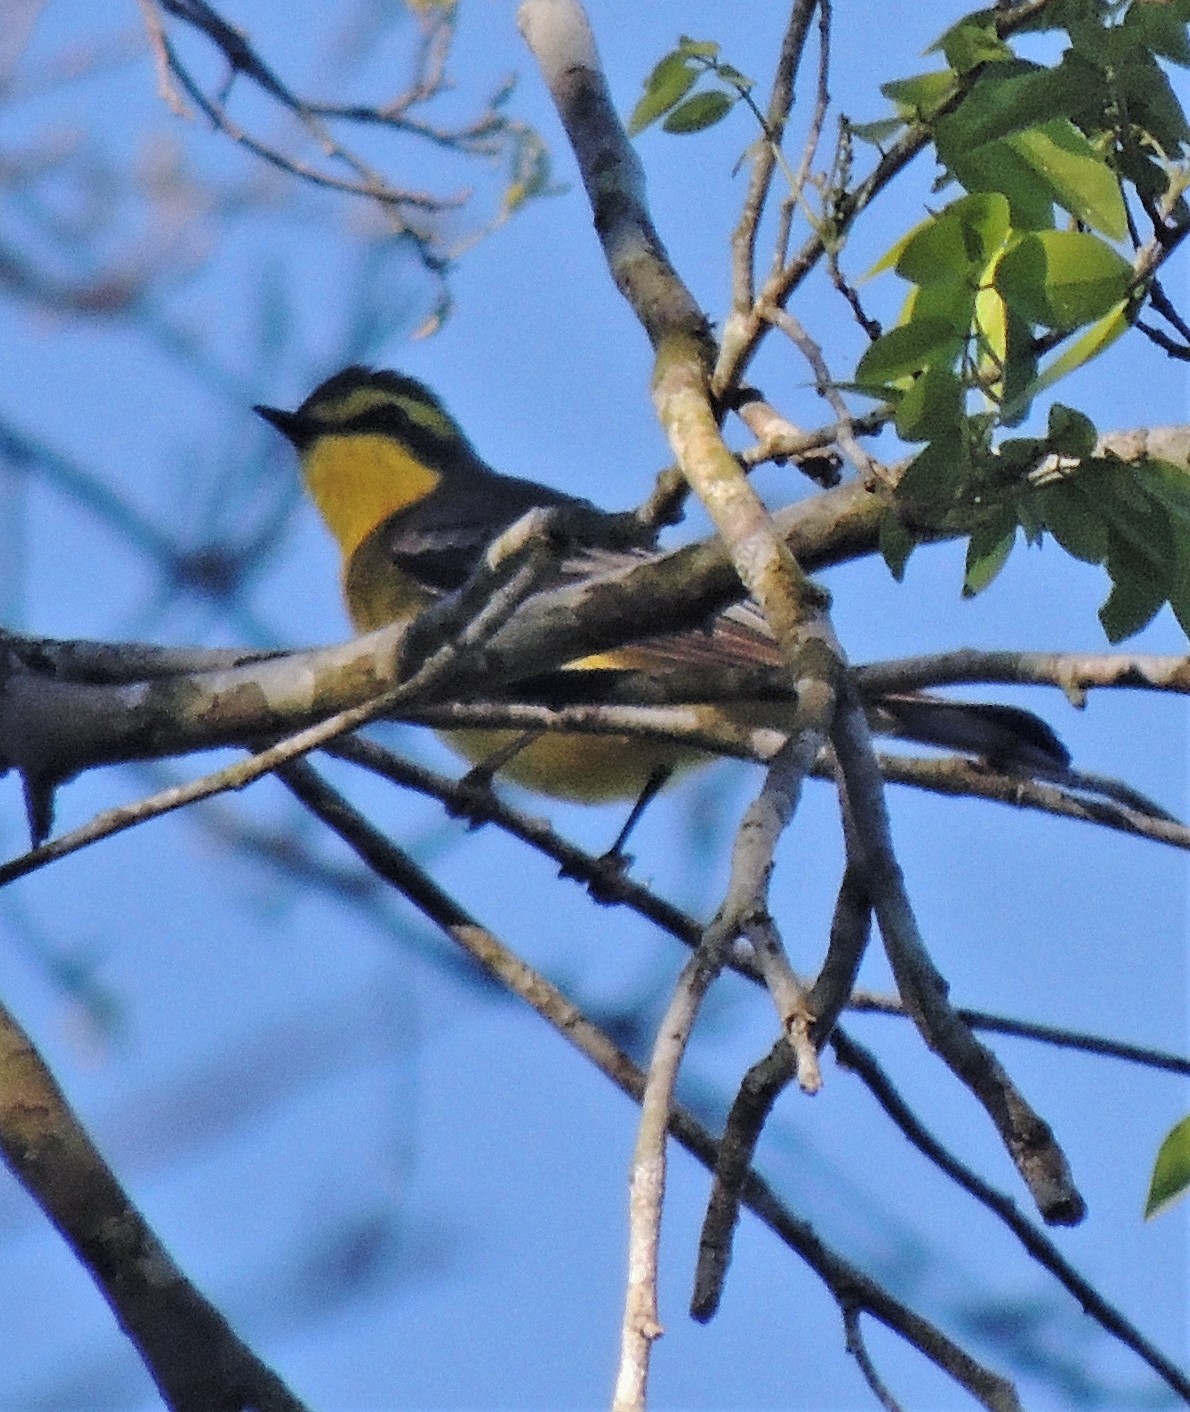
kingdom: Animalia
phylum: Chordata
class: Aves
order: Passeriformes
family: Tyrannidae
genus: Satrapa
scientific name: Satrapa icterophrys
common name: Yellow-browed tyrant
